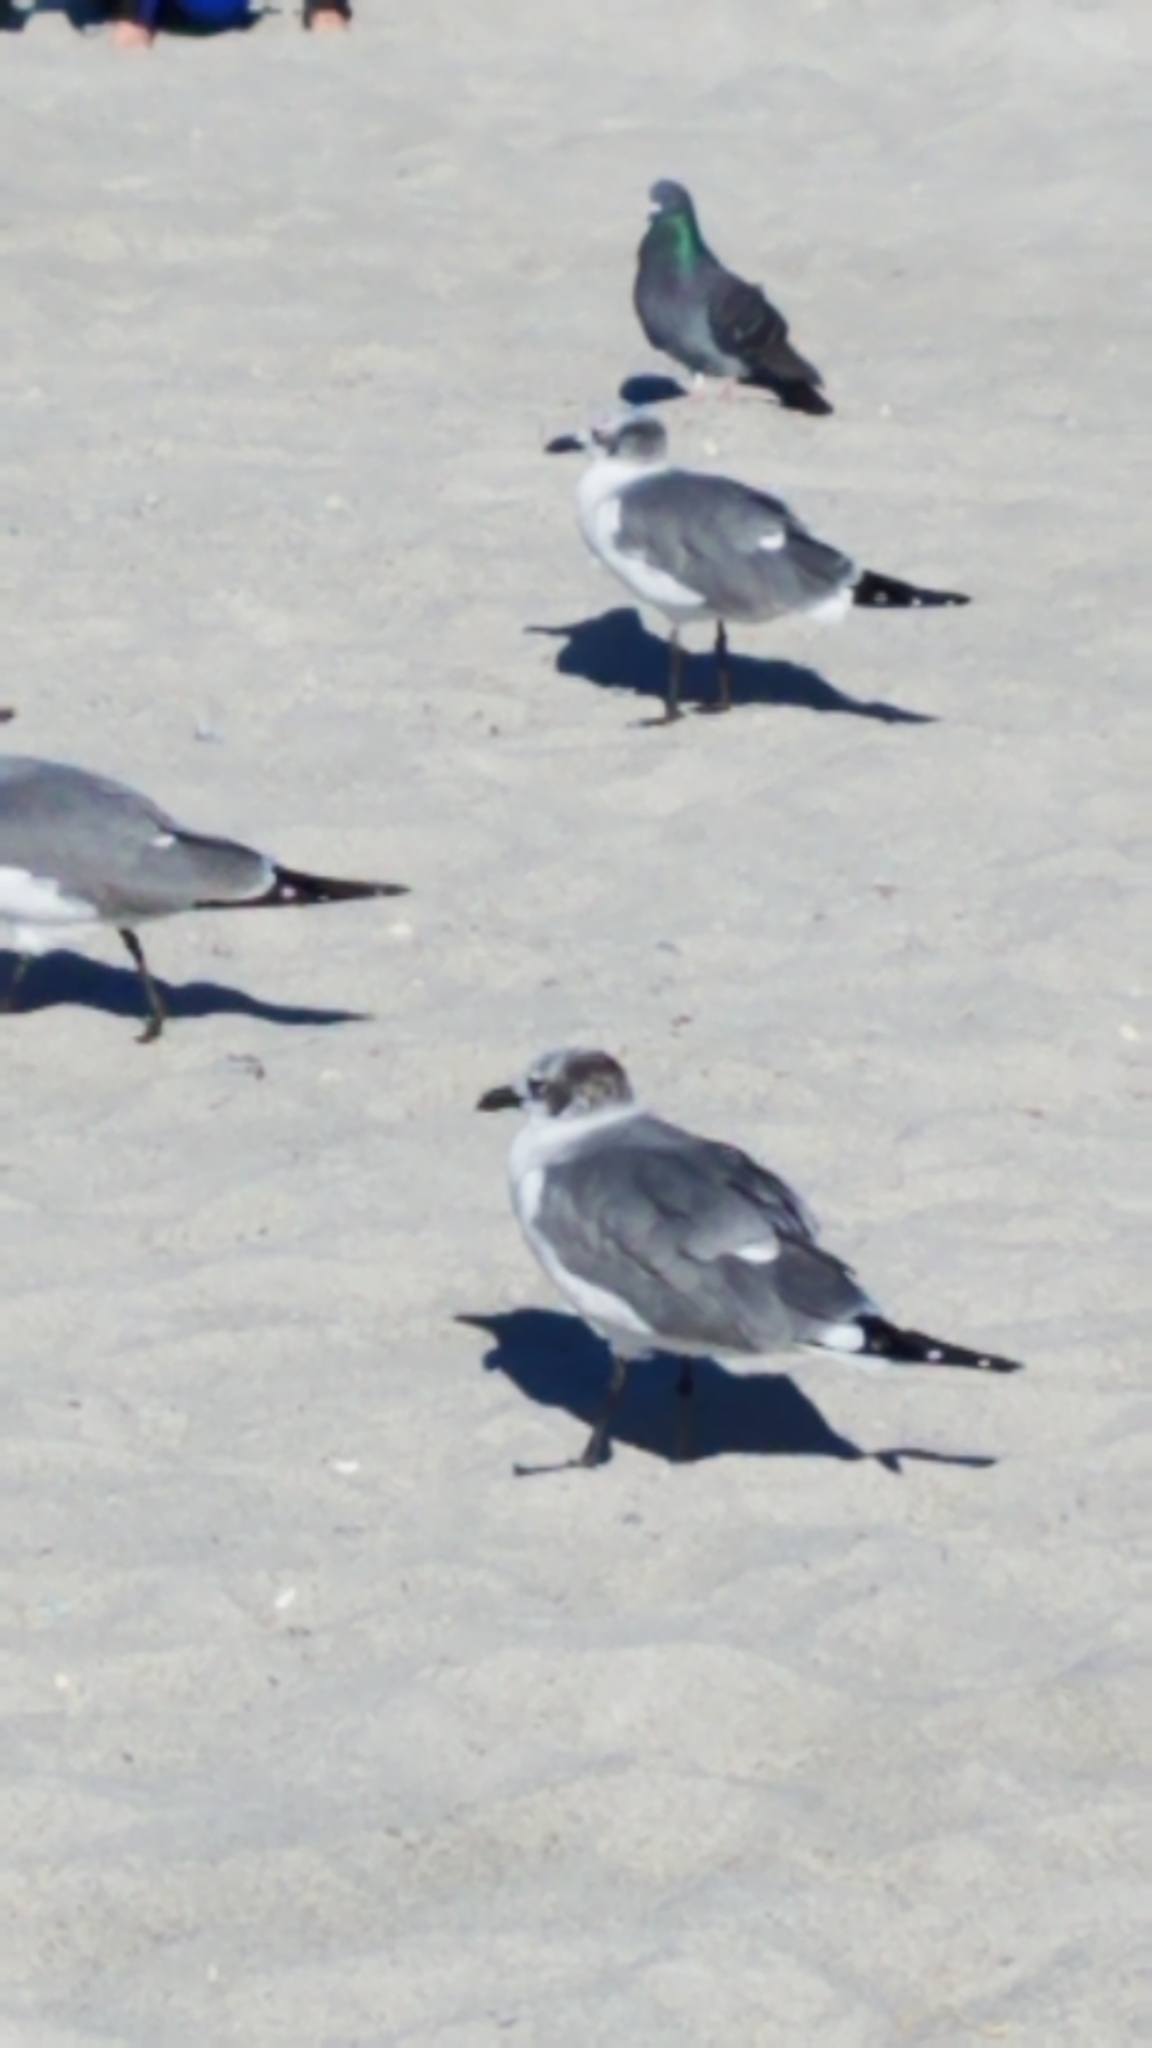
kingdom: Animalia
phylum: Chordata
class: Aves
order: Charadriiformes
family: Laridae
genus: Leucophaeus
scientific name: Leucophaeus atricilla
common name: Laughing gull
